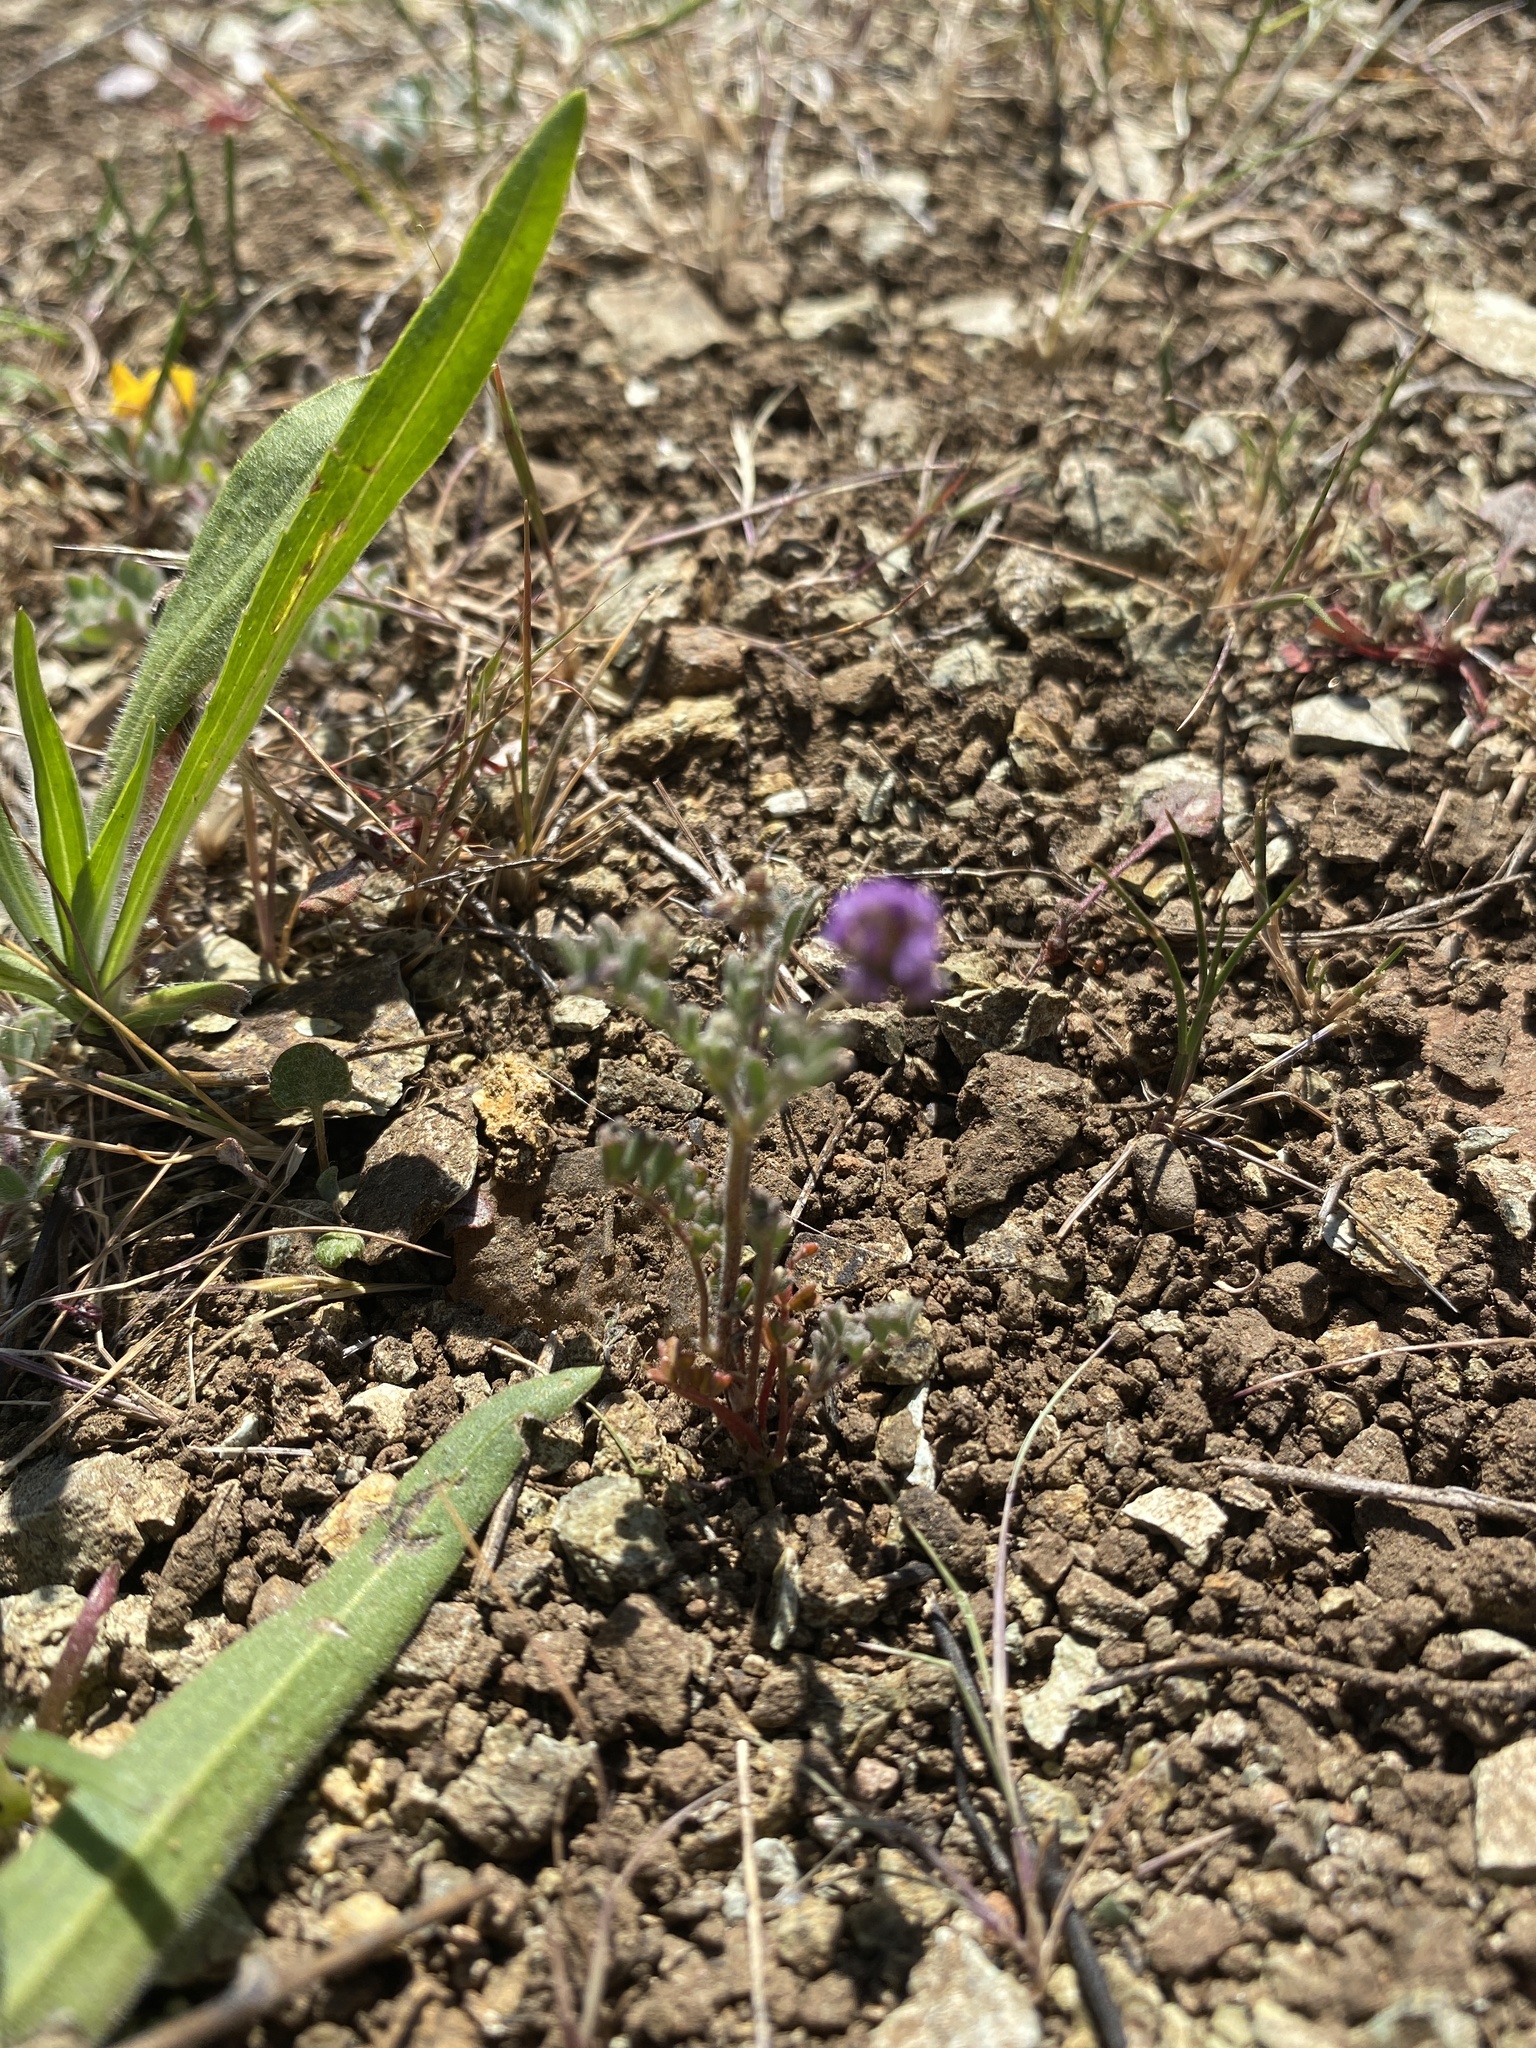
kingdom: Plantae
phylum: Tracheophyta
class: Magnoliopsida
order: Fabales
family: Fabaceae
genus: Astragalus
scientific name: Astragalus gambelianus
